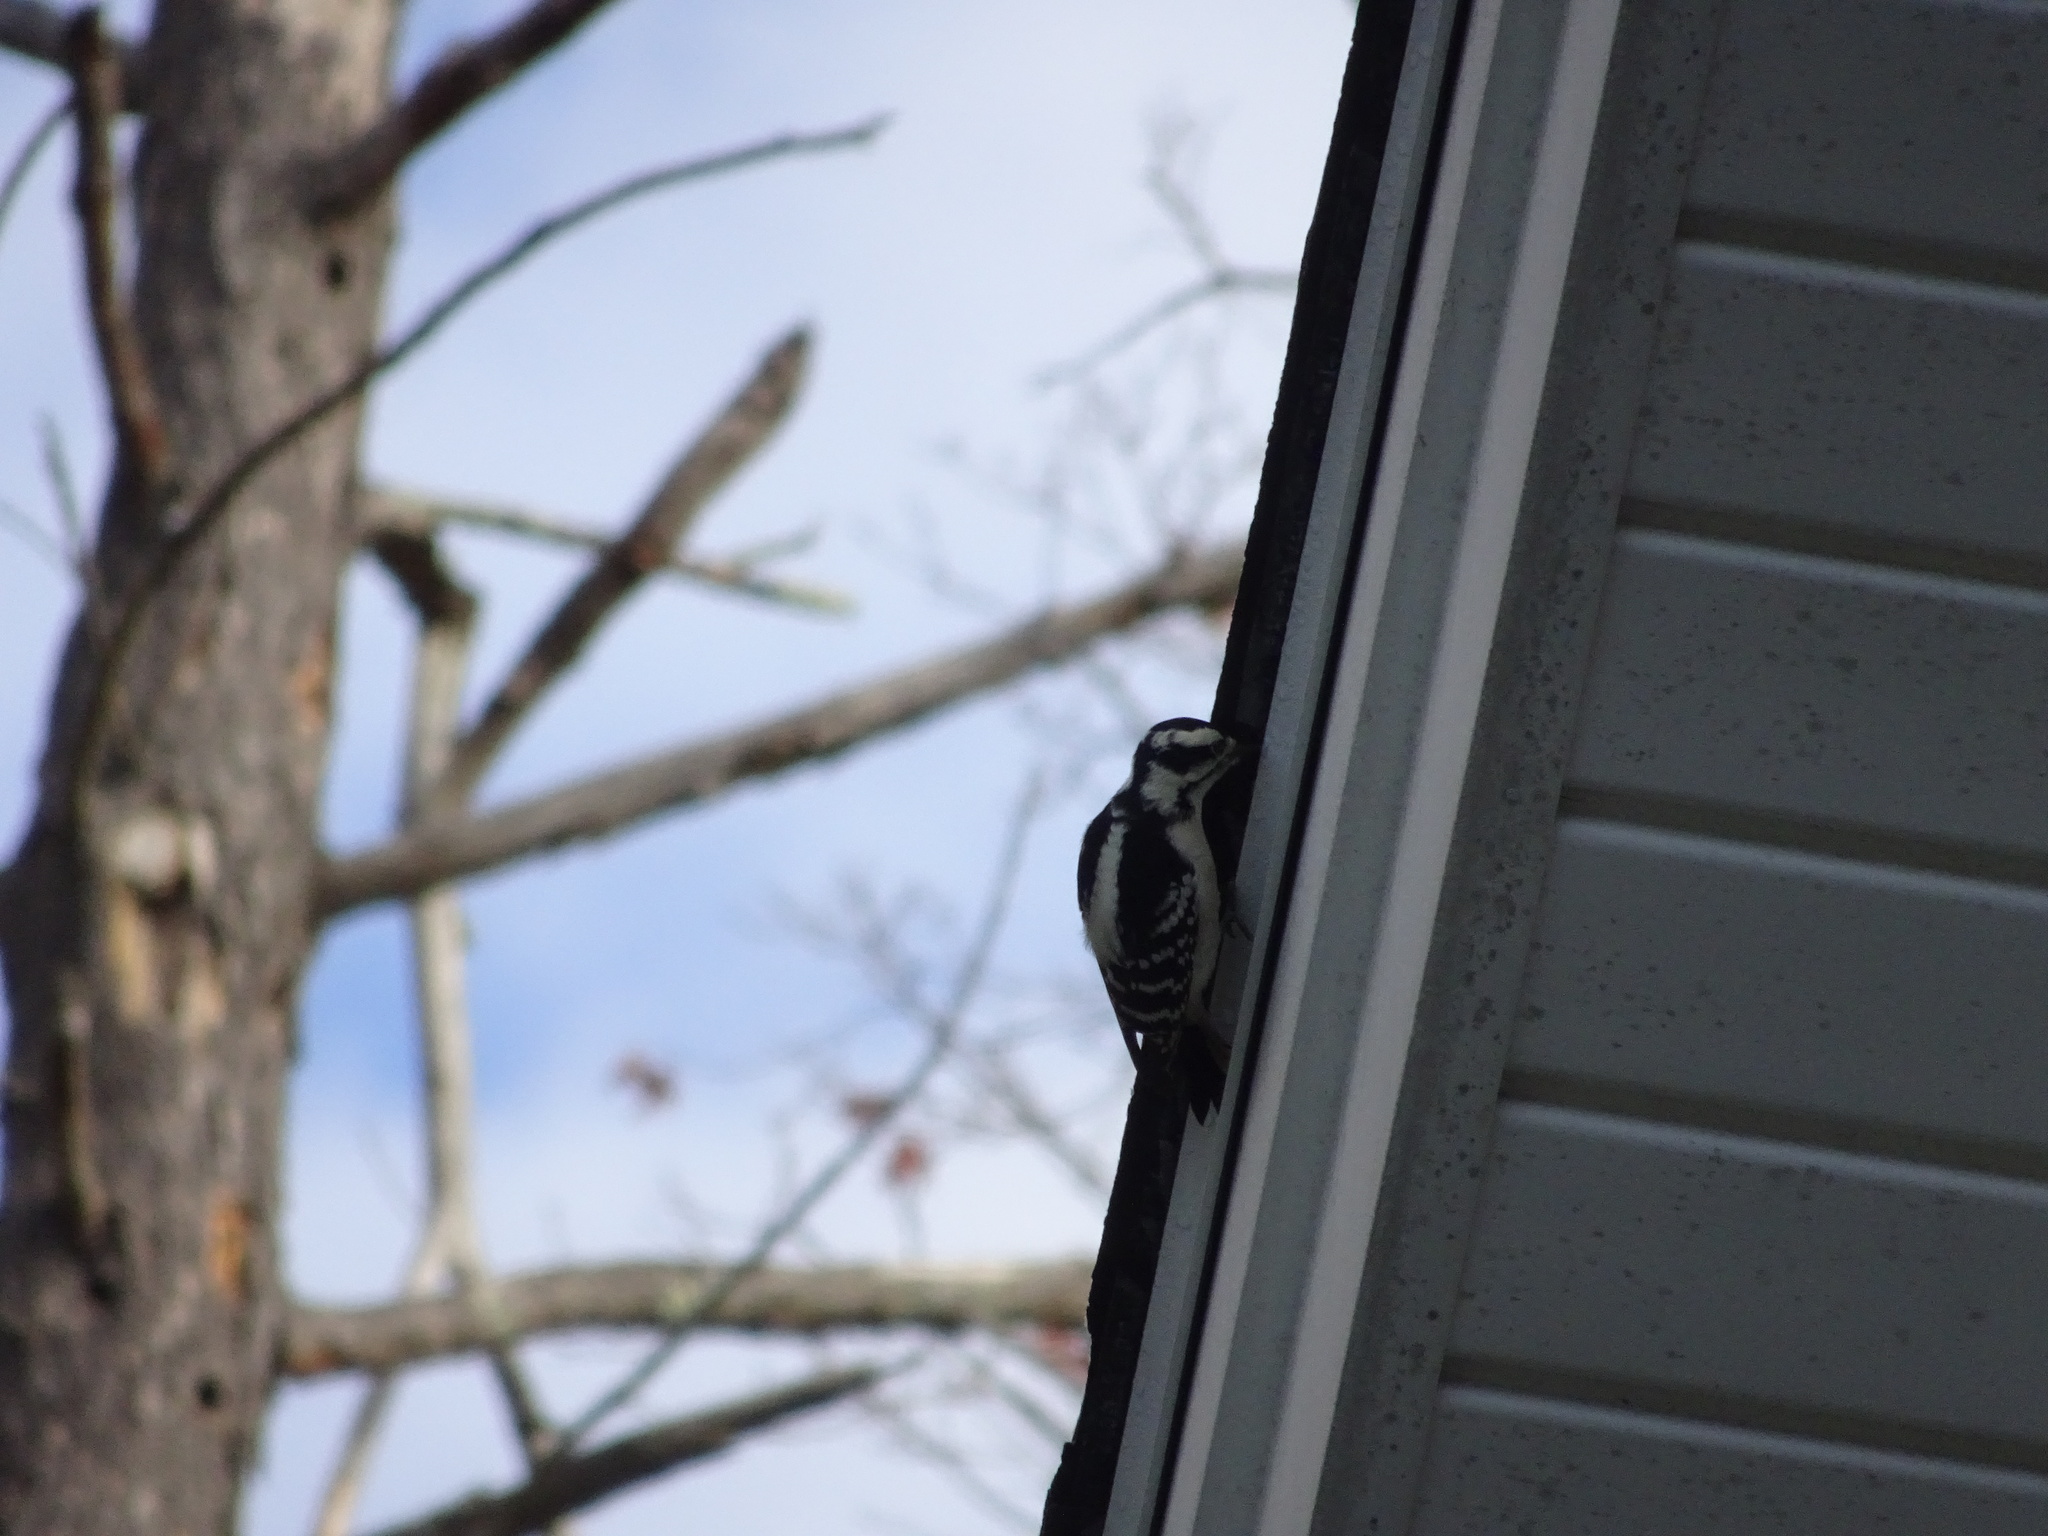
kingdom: Animalia
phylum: Chordata
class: Aves
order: Piciformes
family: Picidae
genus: Dryobates
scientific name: Dryobates pubescens
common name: Downy woodpecker
